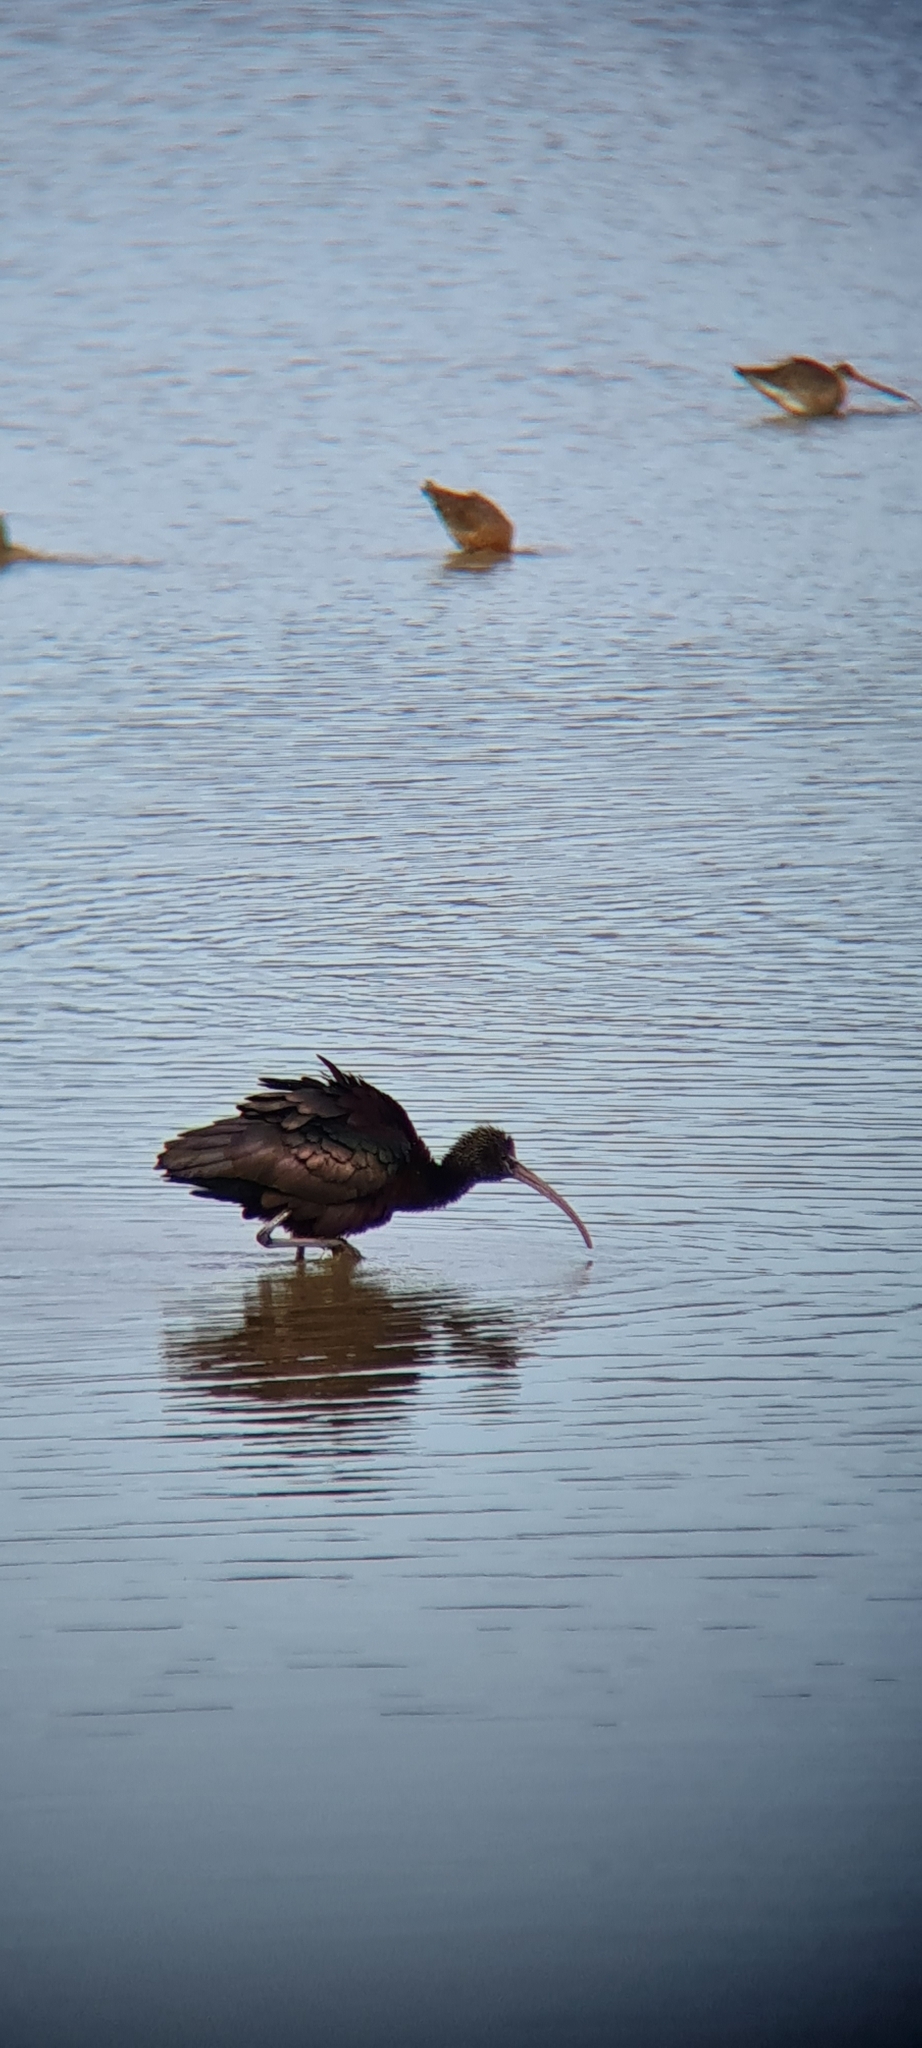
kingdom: Animalia
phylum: Chordata
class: Aves
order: Pelecaniformes
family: Threskiornithidae
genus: Plegadis
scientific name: Plegadis falcinellus
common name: Glossy ibis
